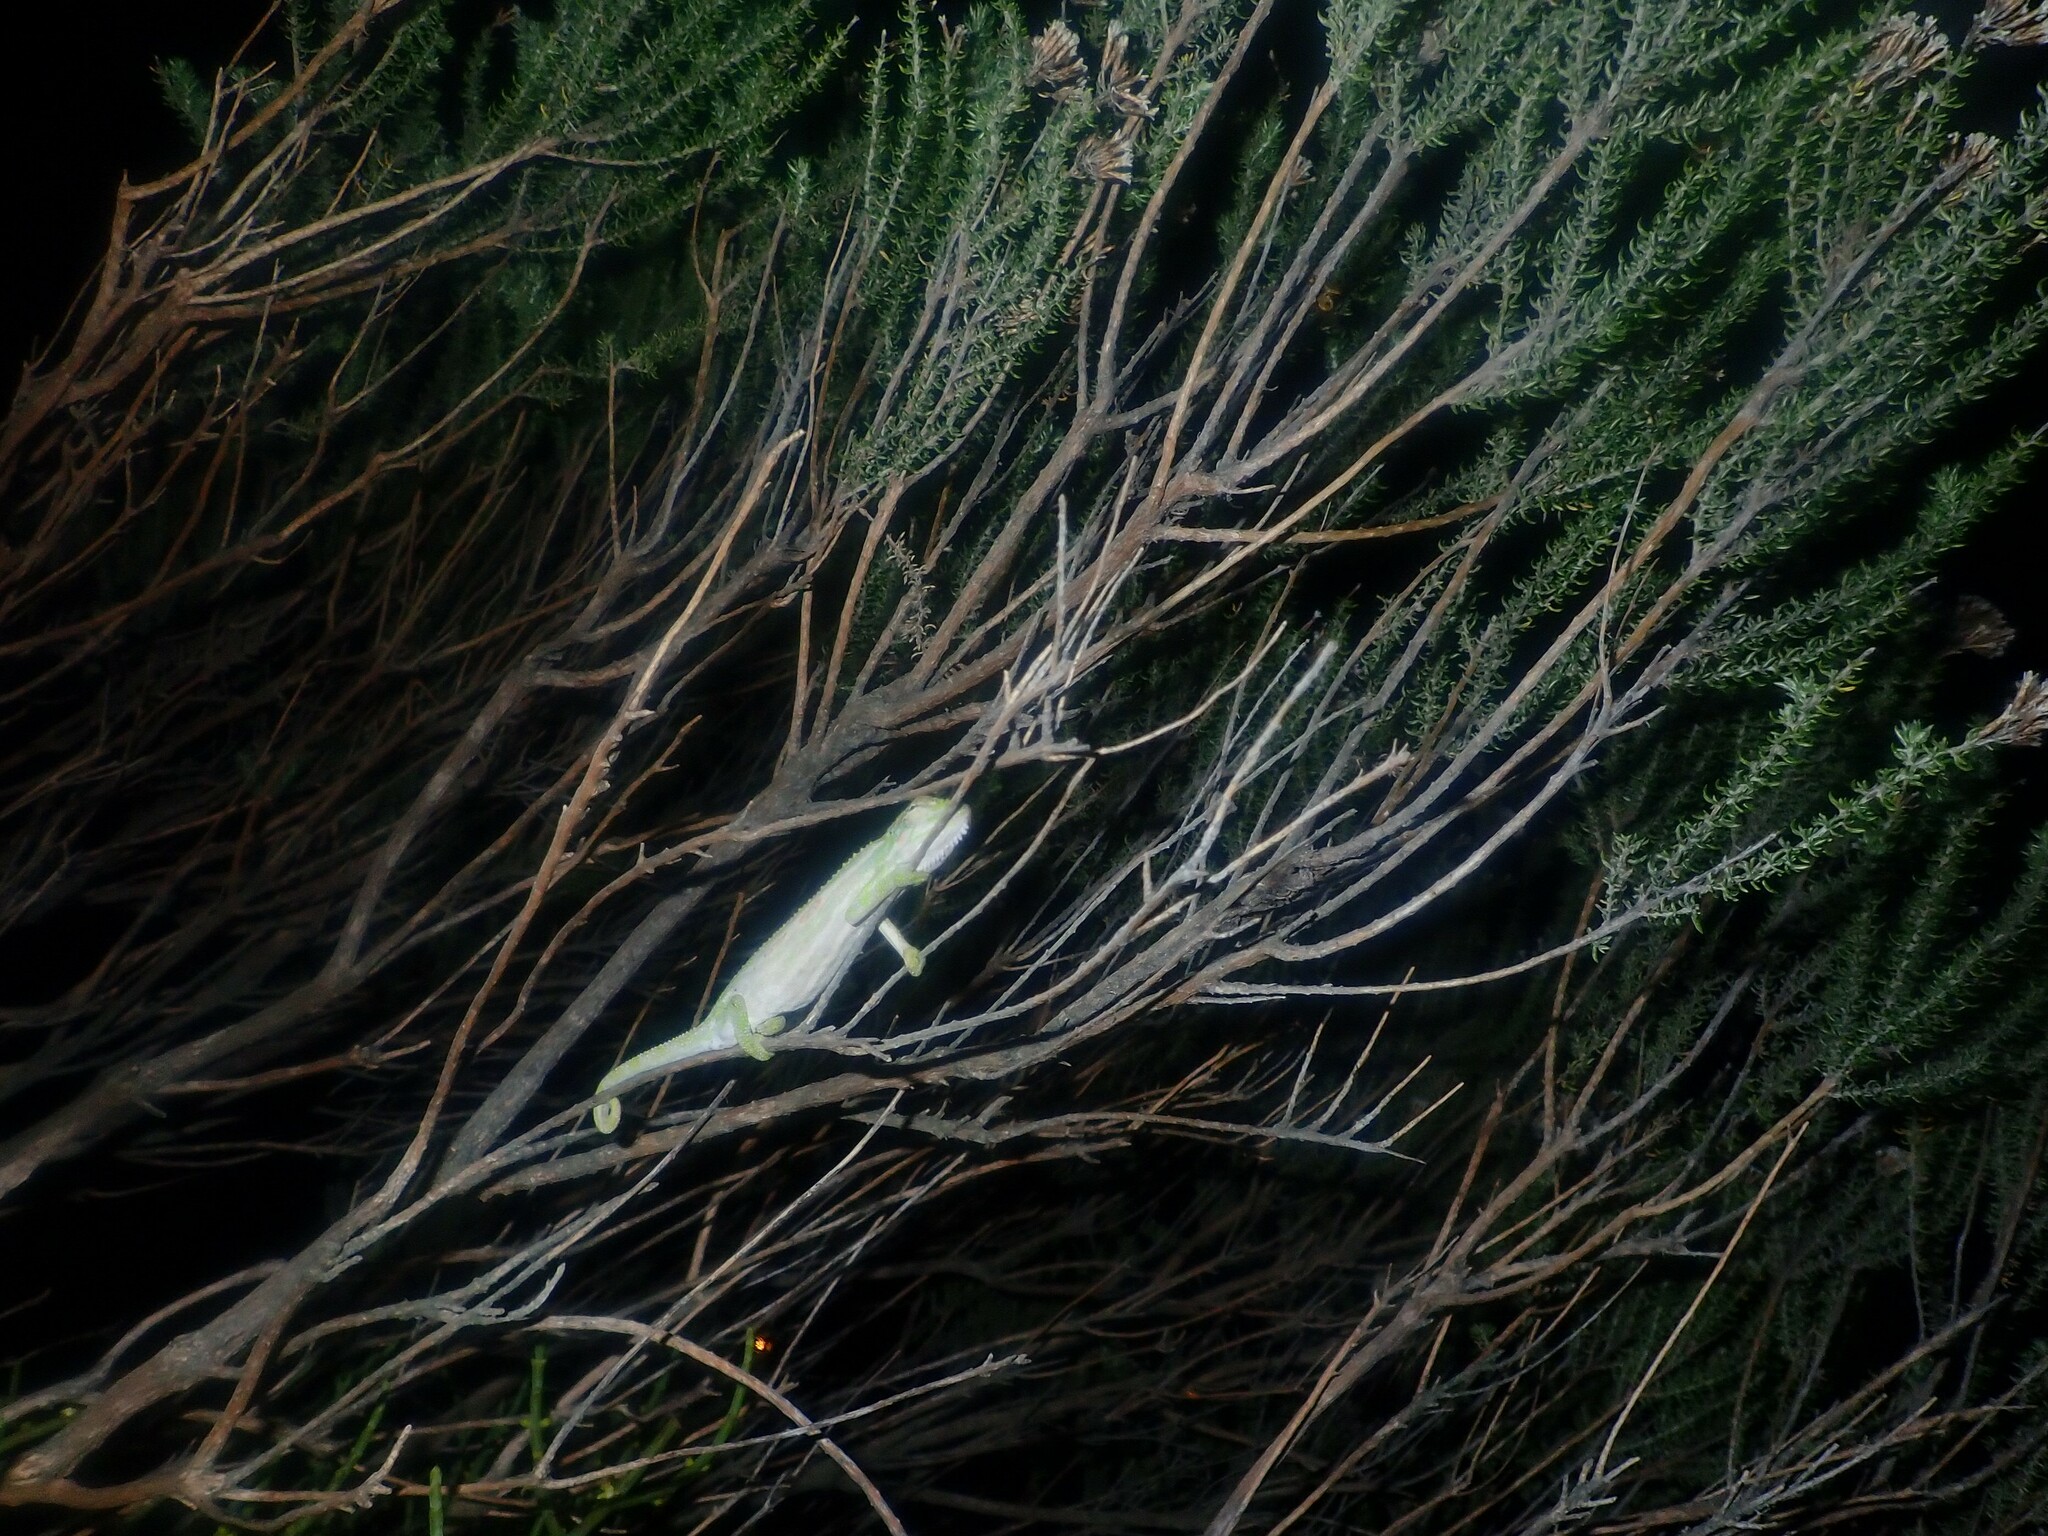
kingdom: Animalia
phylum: Chordata
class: Squamata
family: Chamaeleonidae
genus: Bradypodion
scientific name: Bradypodion pumilum
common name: Cape dwarf chameleon
